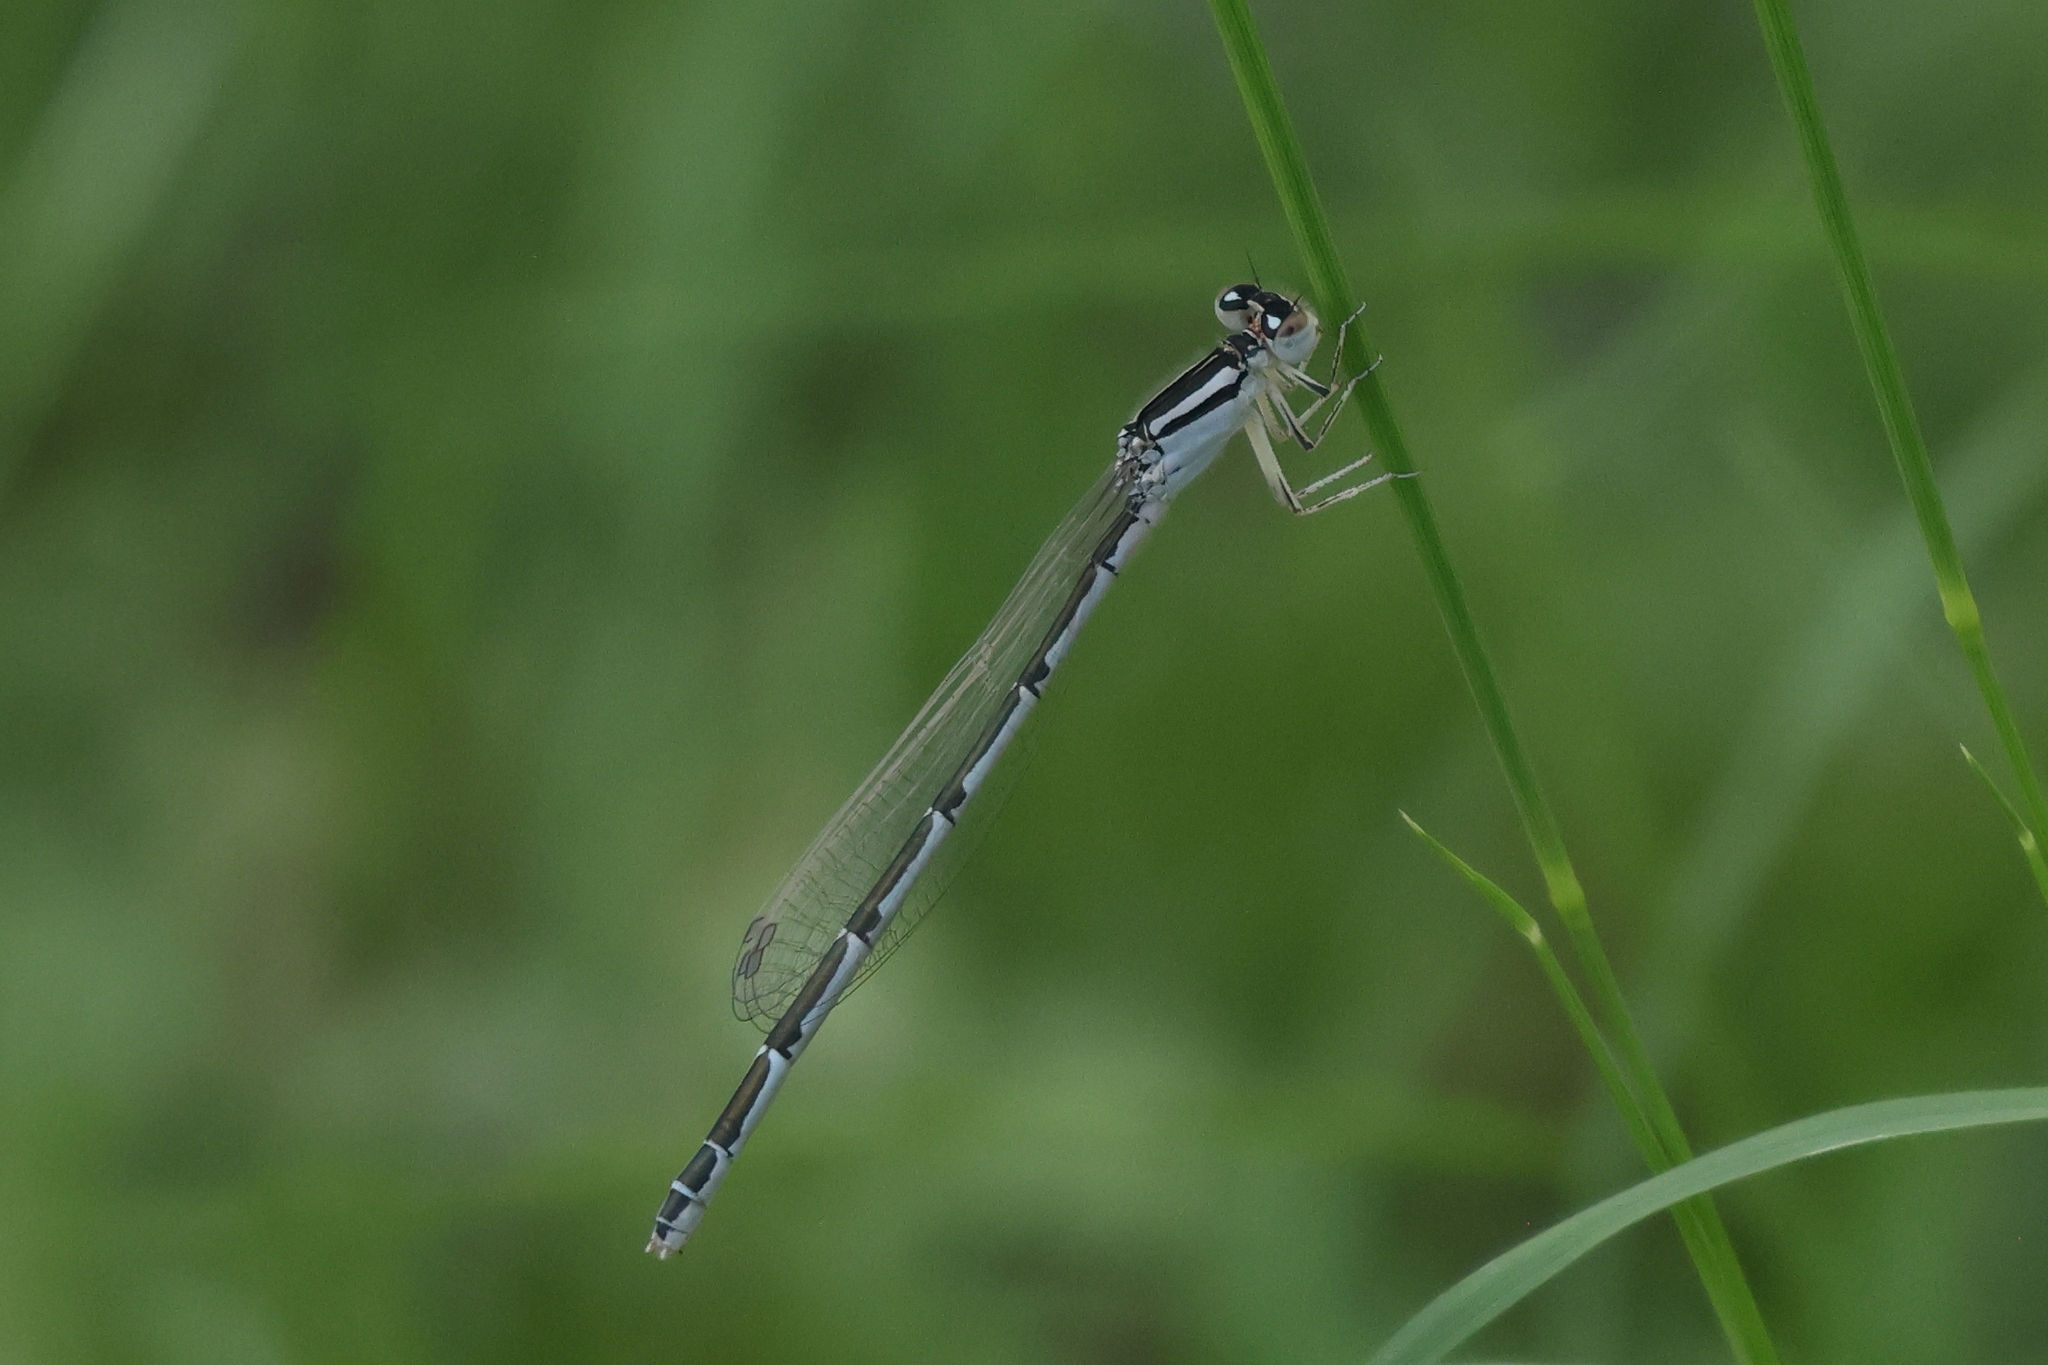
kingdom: Animalia
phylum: Arthropoda
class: Insecta
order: Odonata
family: Coenagrionidae
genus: Enallagma
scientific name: Enallagma
